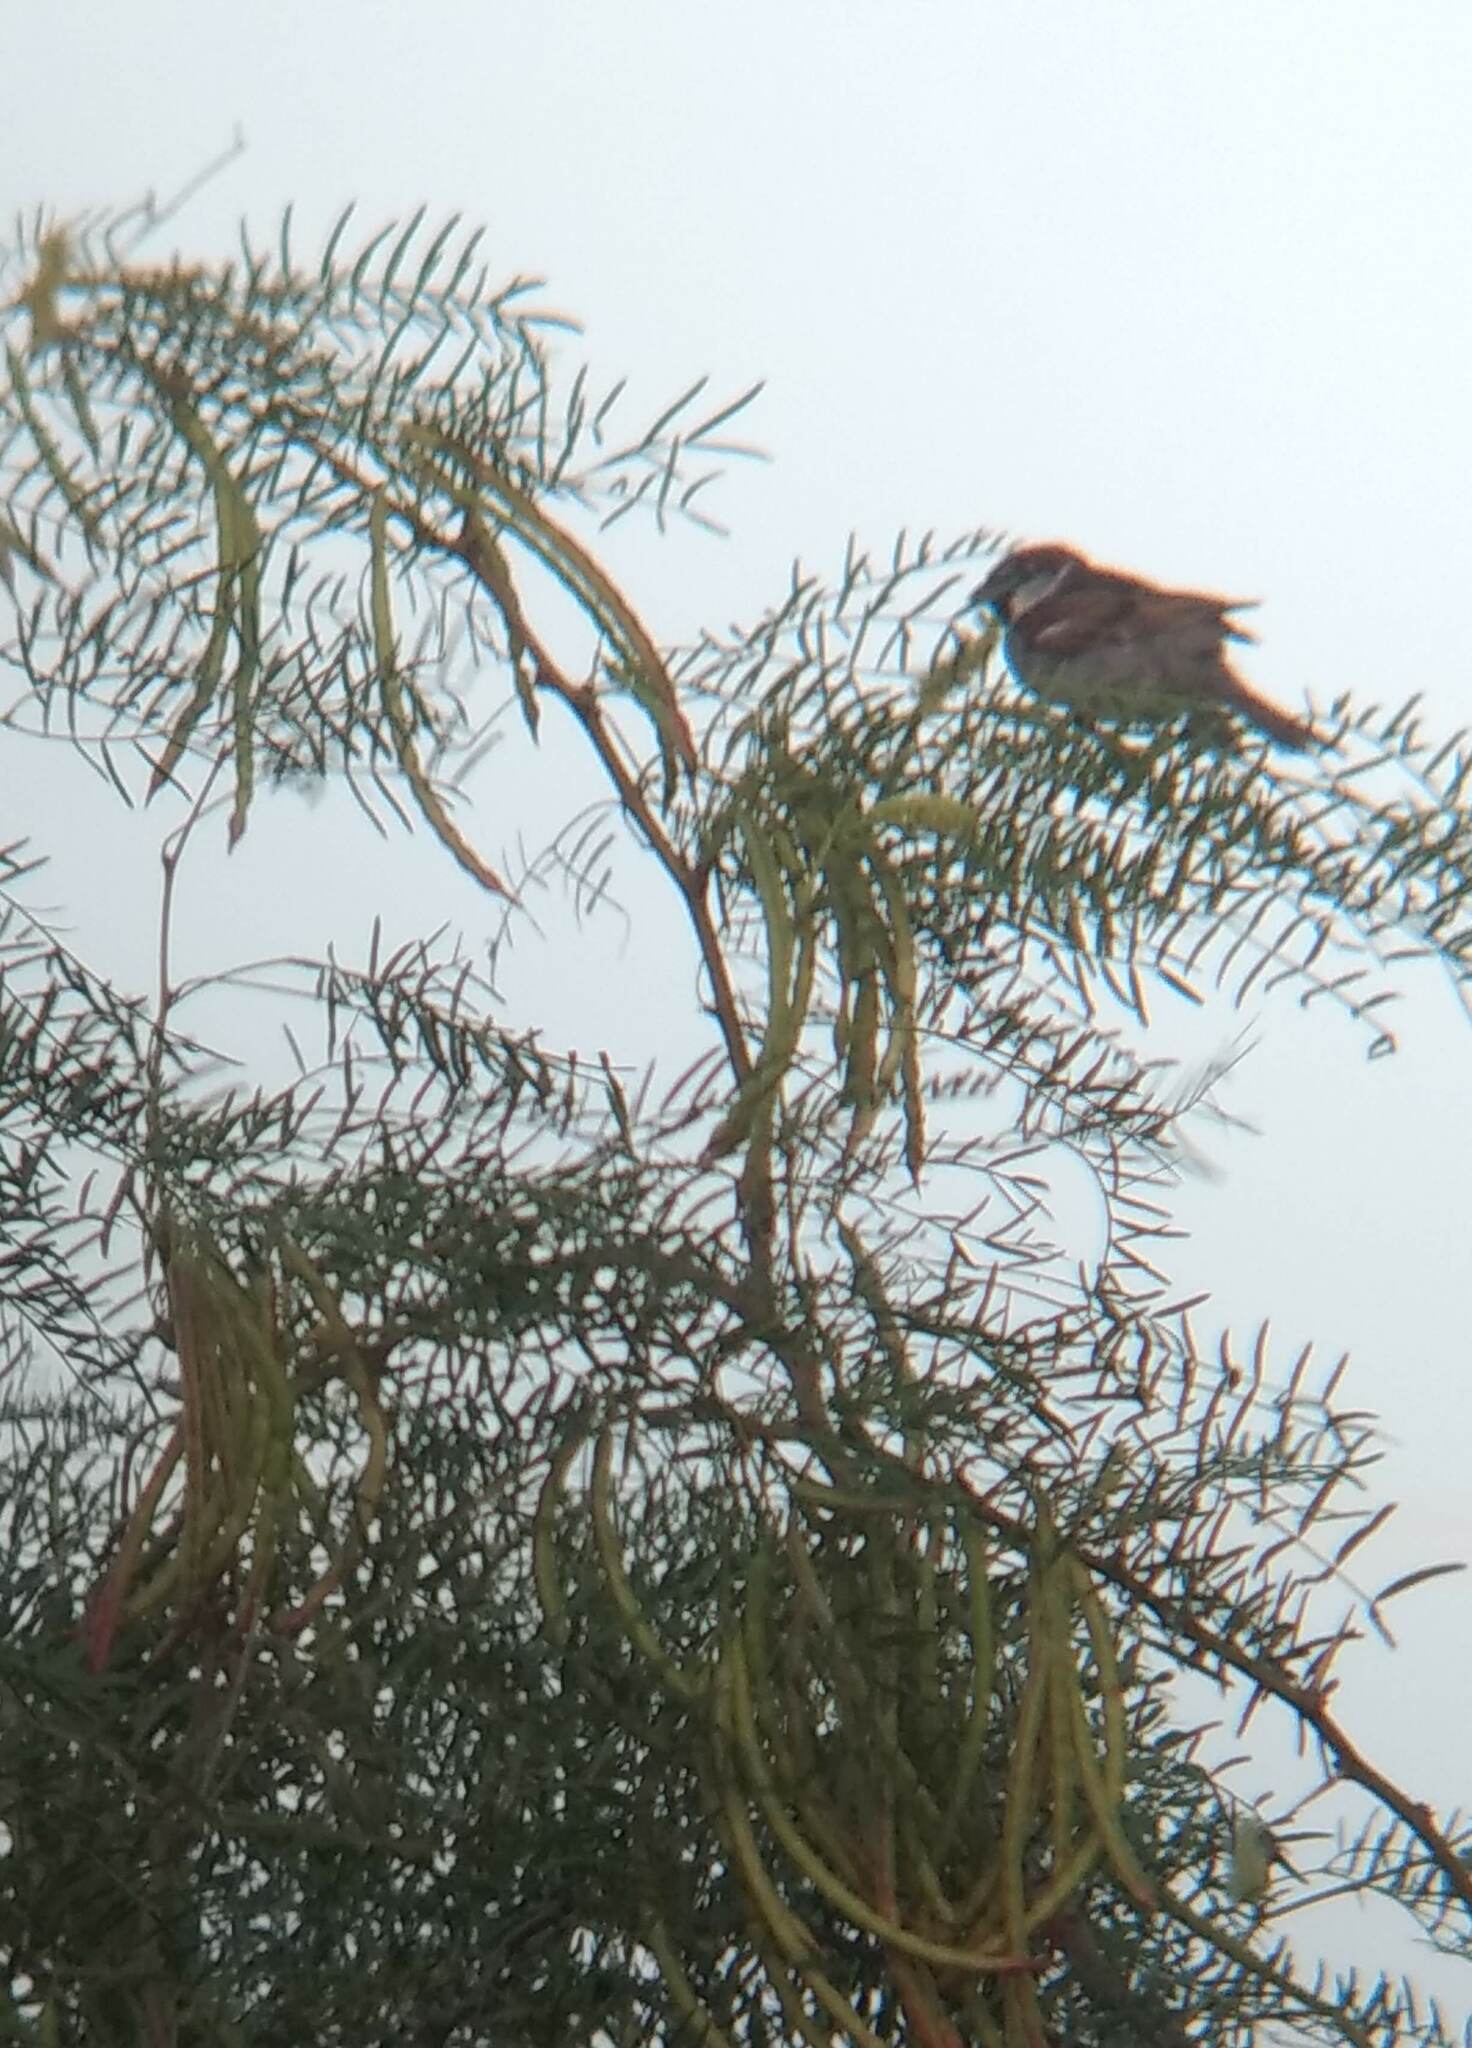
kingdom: Animalia
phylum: Chordata
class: Aves
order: Passeriformes
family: Passeridae
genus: Passer
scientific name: Passer domesticus
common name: House sparrow
